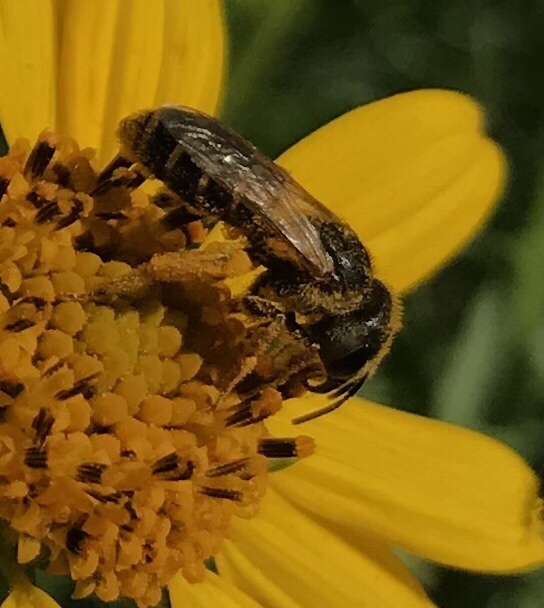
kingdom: Animalia
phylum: Arthropoda
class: Insecta
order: Hymenoptera
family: Halictidae
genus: Halictus
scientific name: Halictus ligatus
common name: Ligated furrow bee
